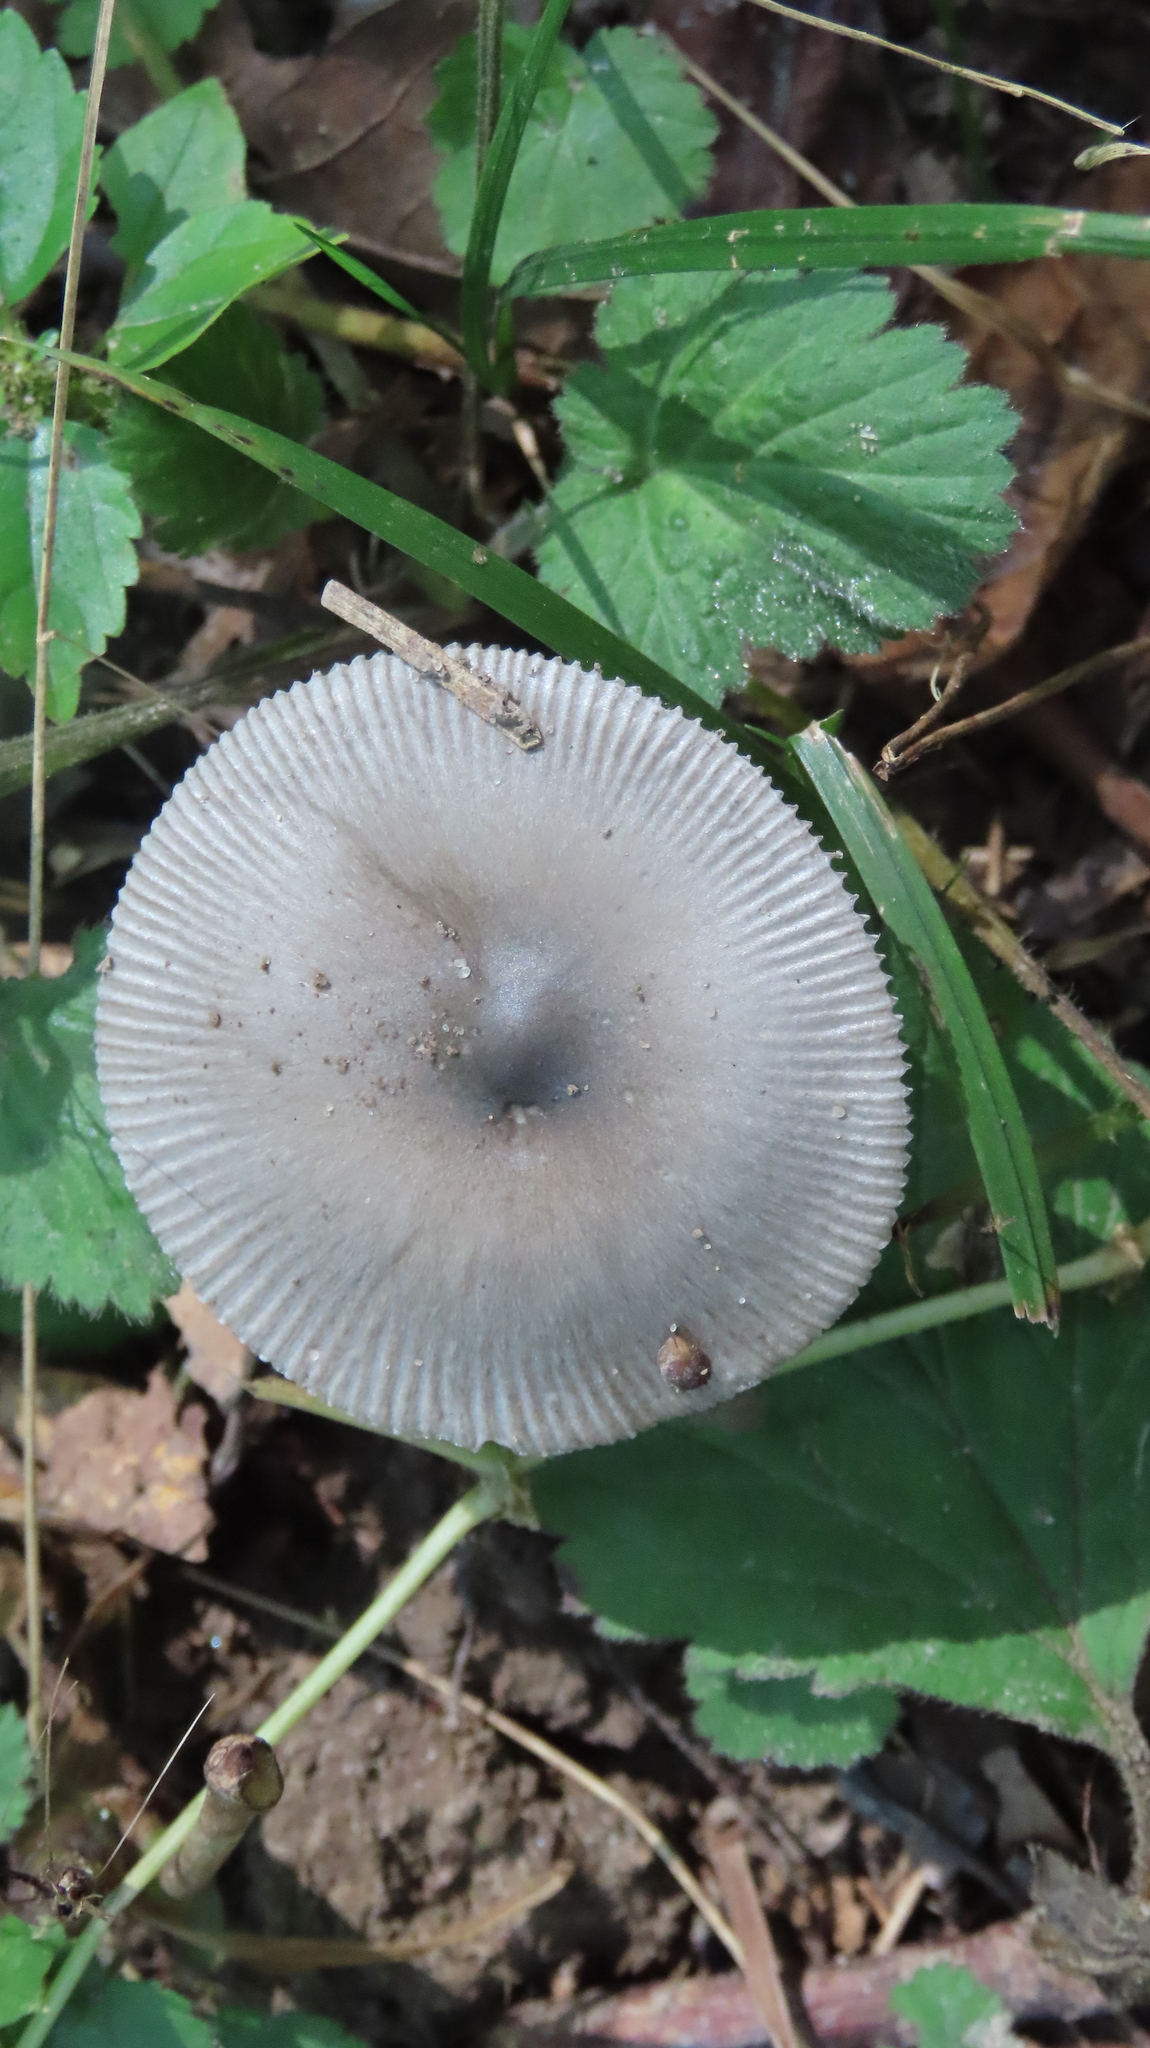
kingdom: Fungi
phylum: Basidiomycota
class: Agaricomycetes
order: Agaricales
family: Amanitaceae
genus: Amanita
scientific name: Amanita vaginata
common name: Grisette
